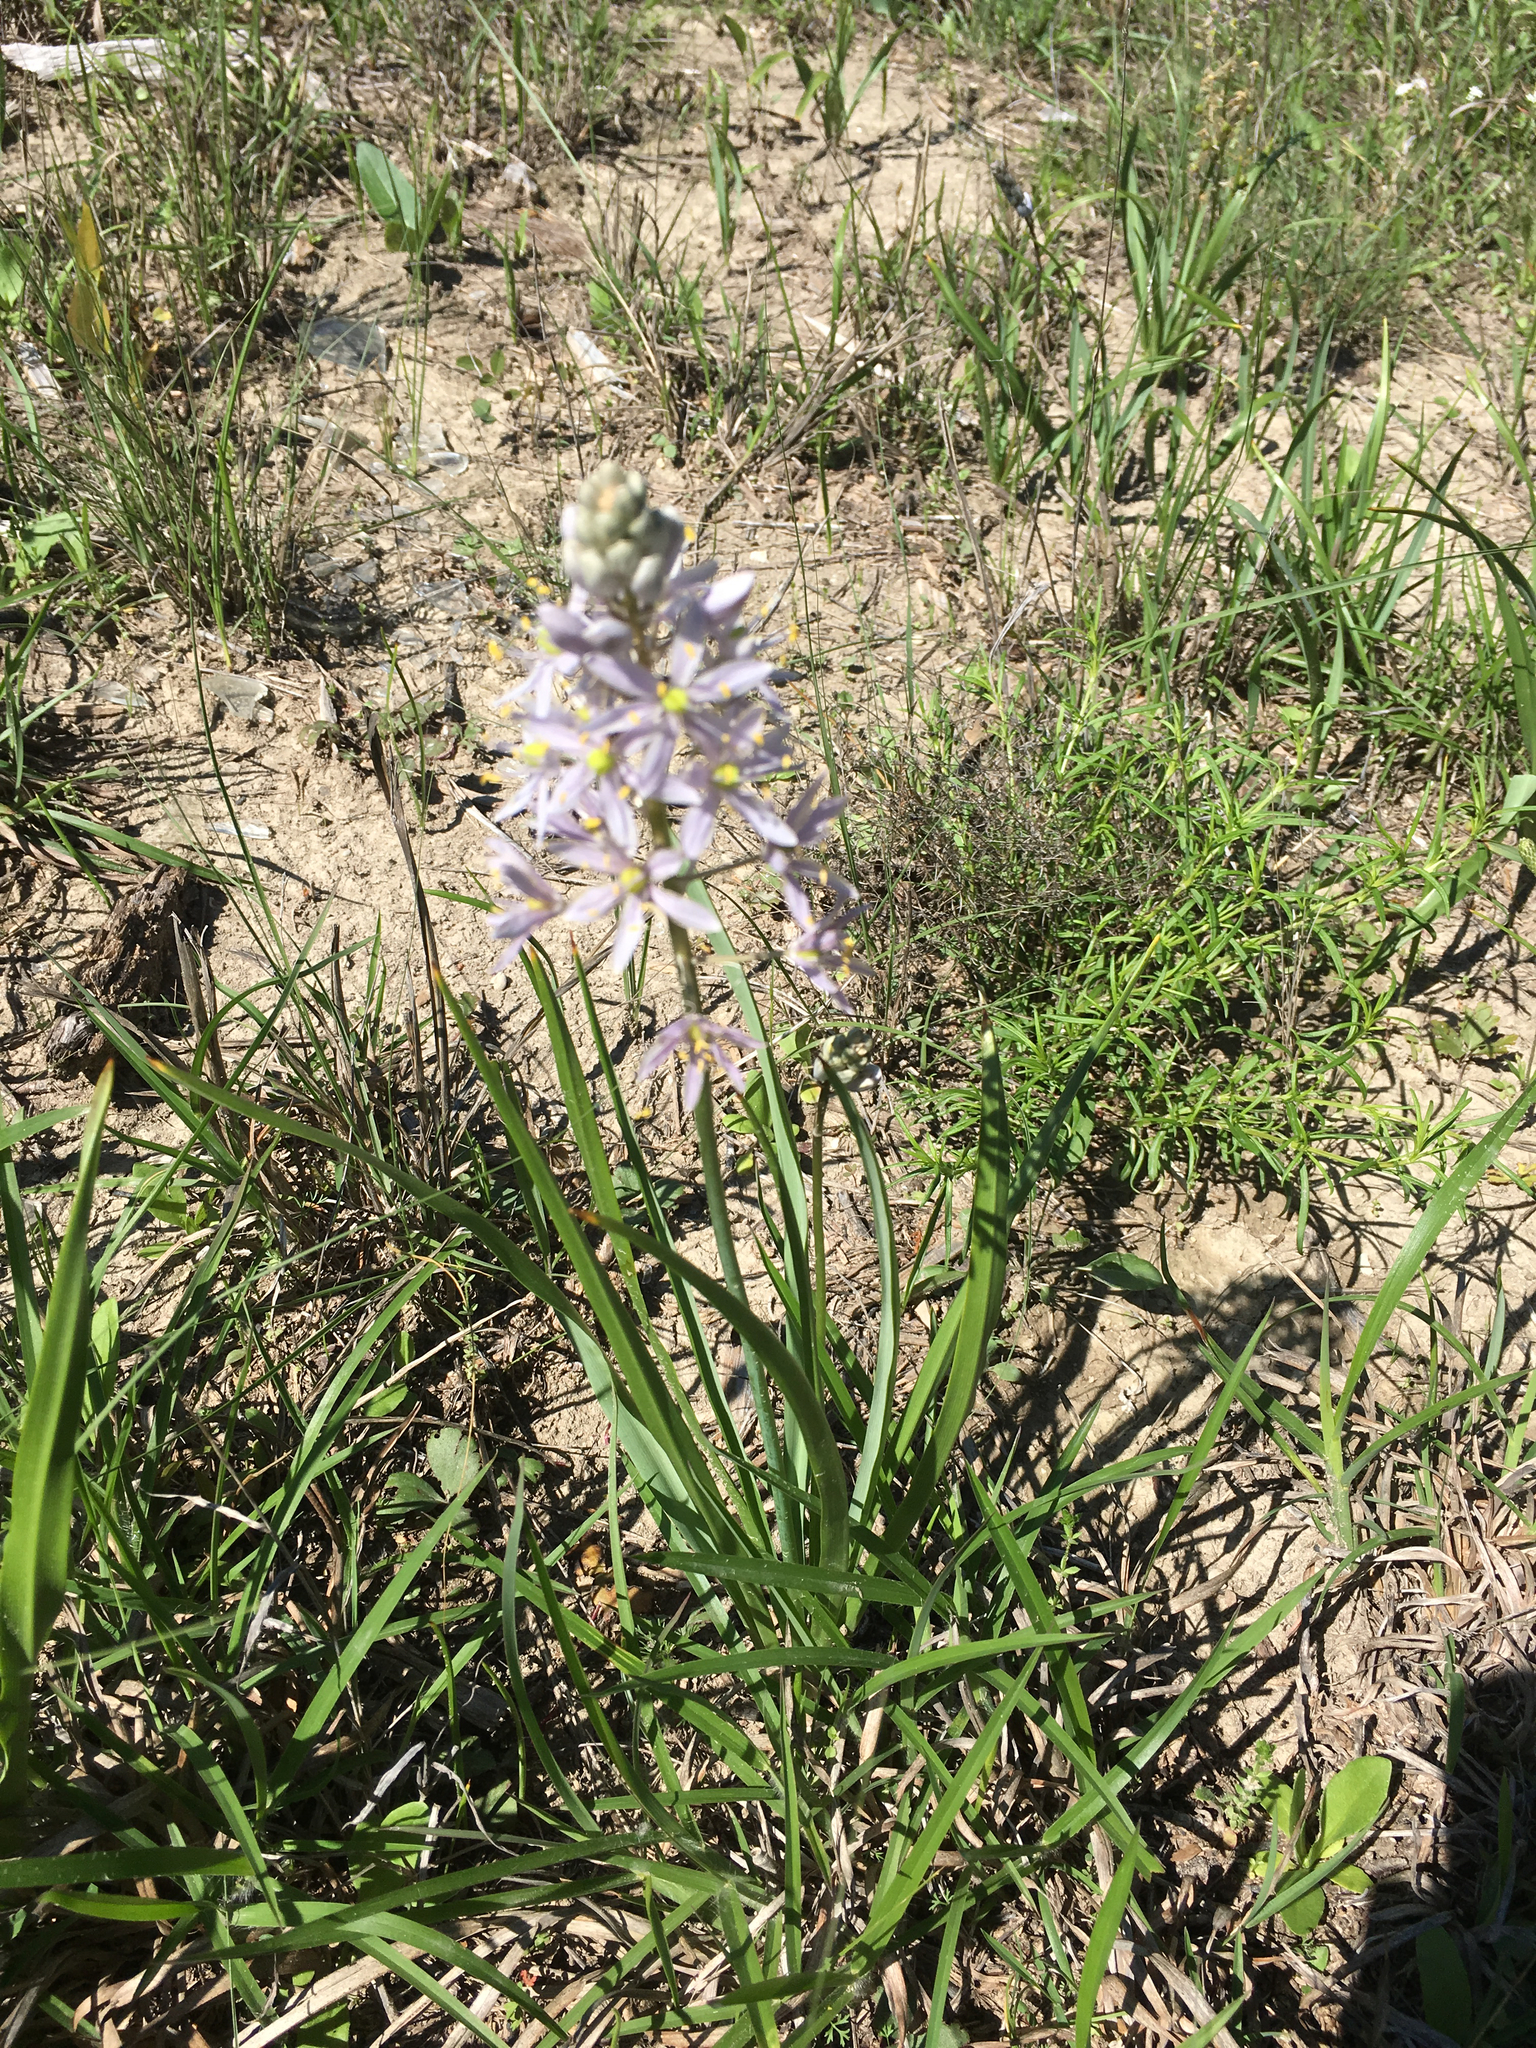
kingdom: Plantae
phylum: Tracheophyta
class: Liliopsida
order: Asparagales
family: Asparagaceae
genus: Camassia
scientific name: Camassia scilloides
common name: Wild hyacinth
